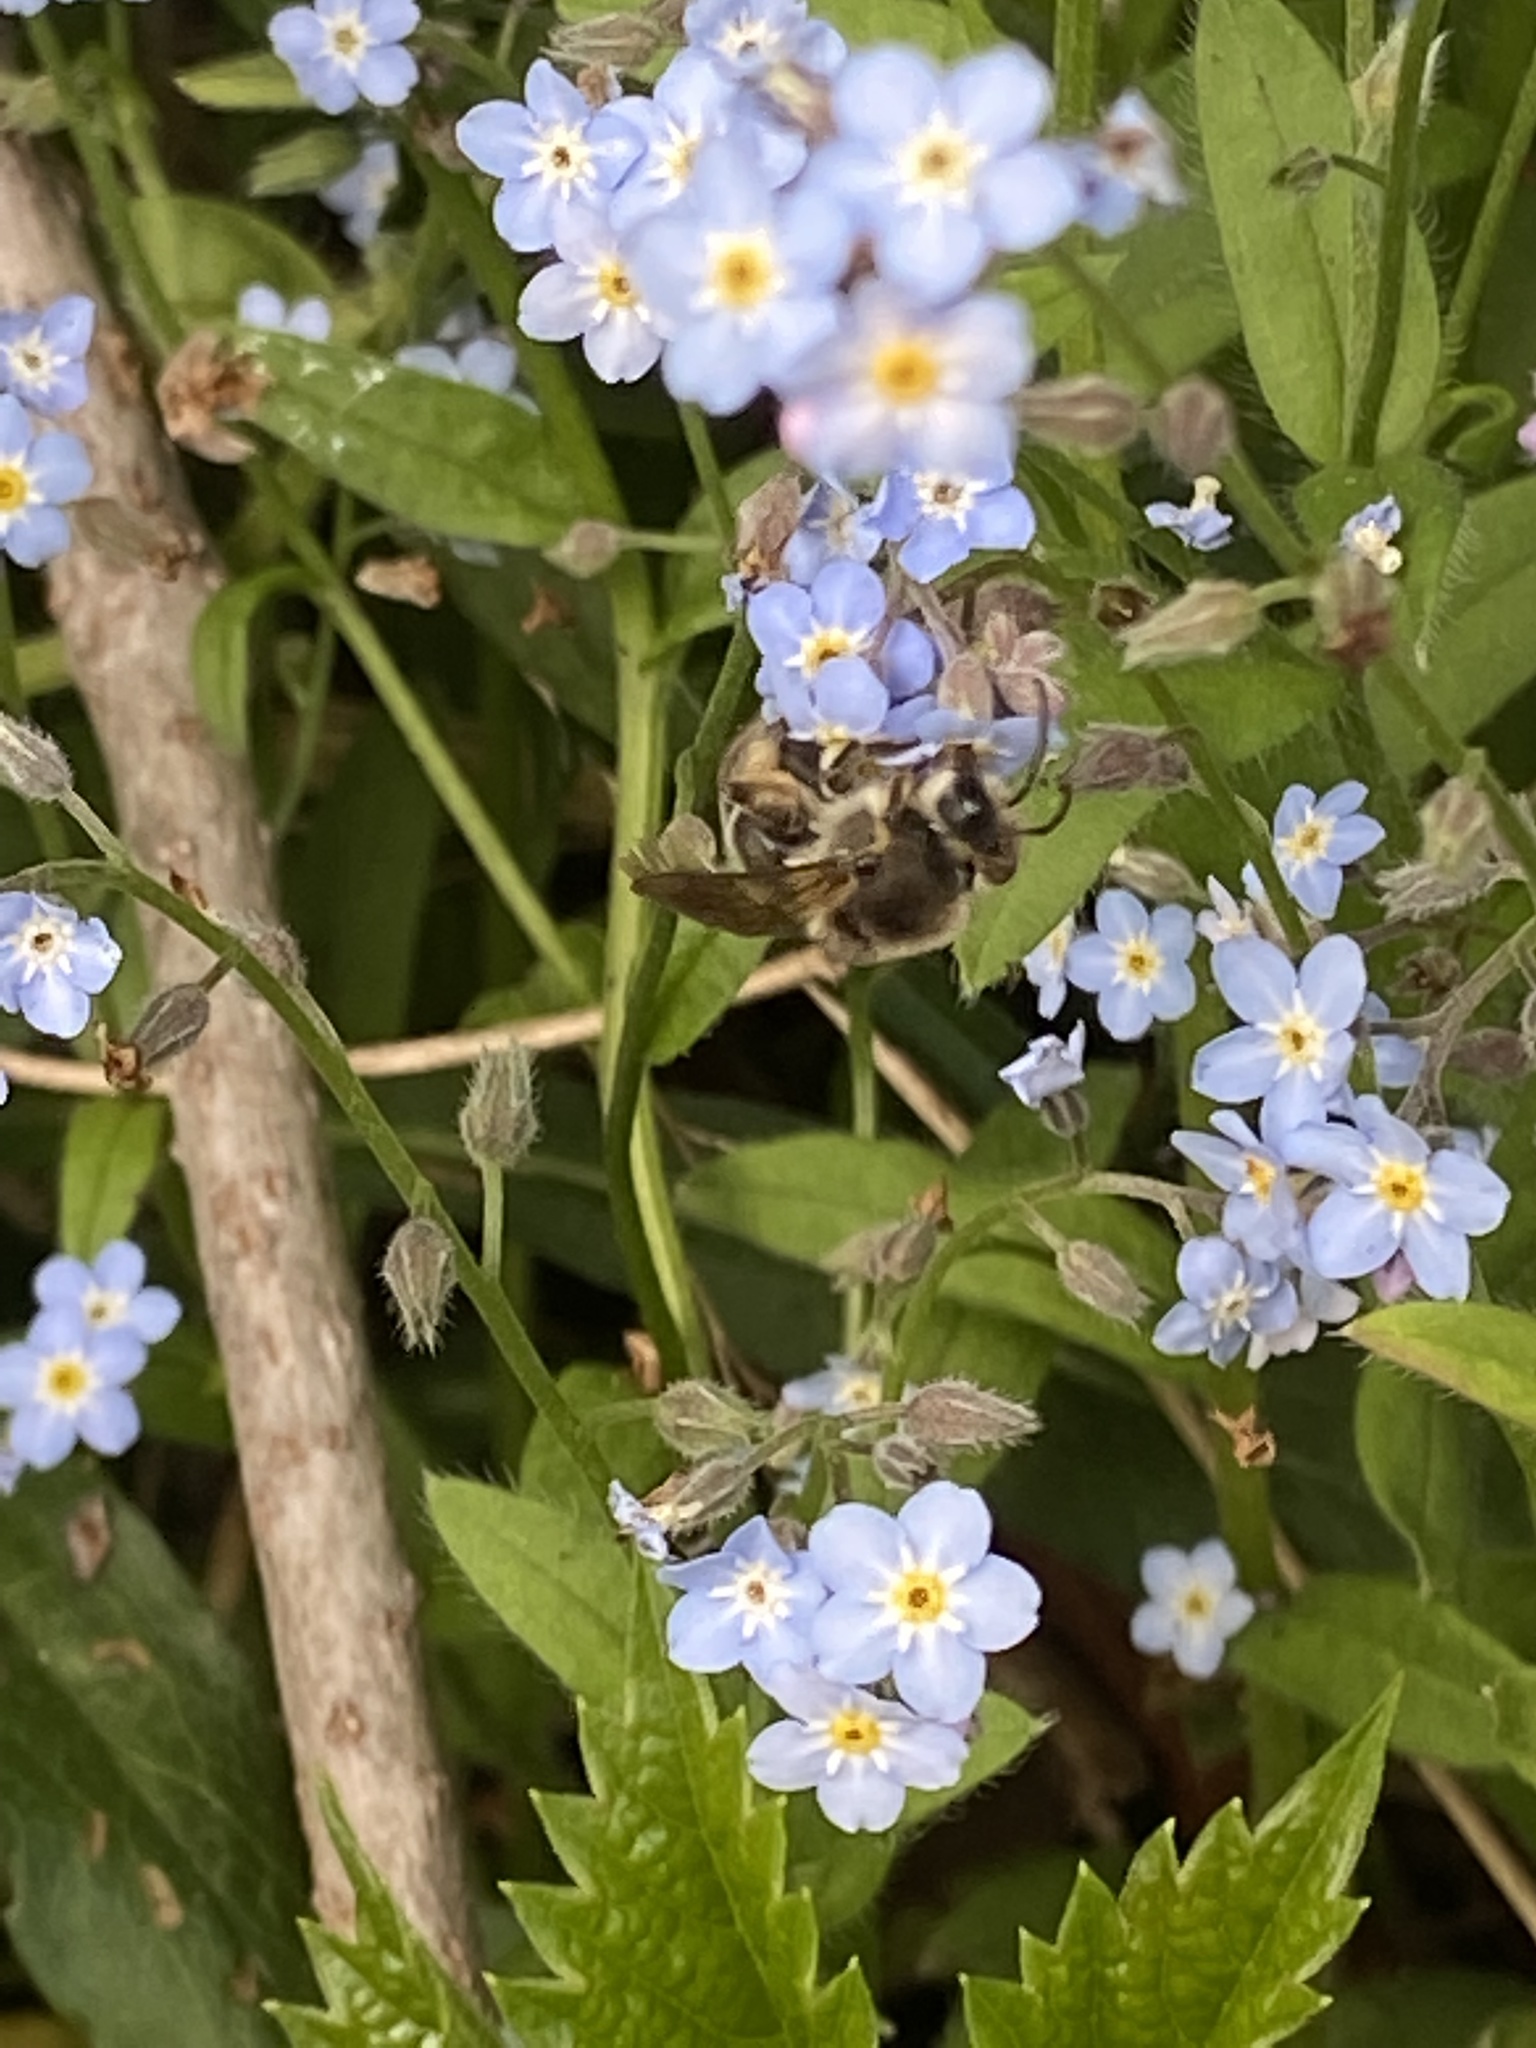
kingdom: Animalia
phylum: Arthropoda
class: Insecta
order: Hymenoptera
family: Colletidae
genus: Colletes
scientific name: Colletes inaequalis
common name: Unequal cellophane bee
